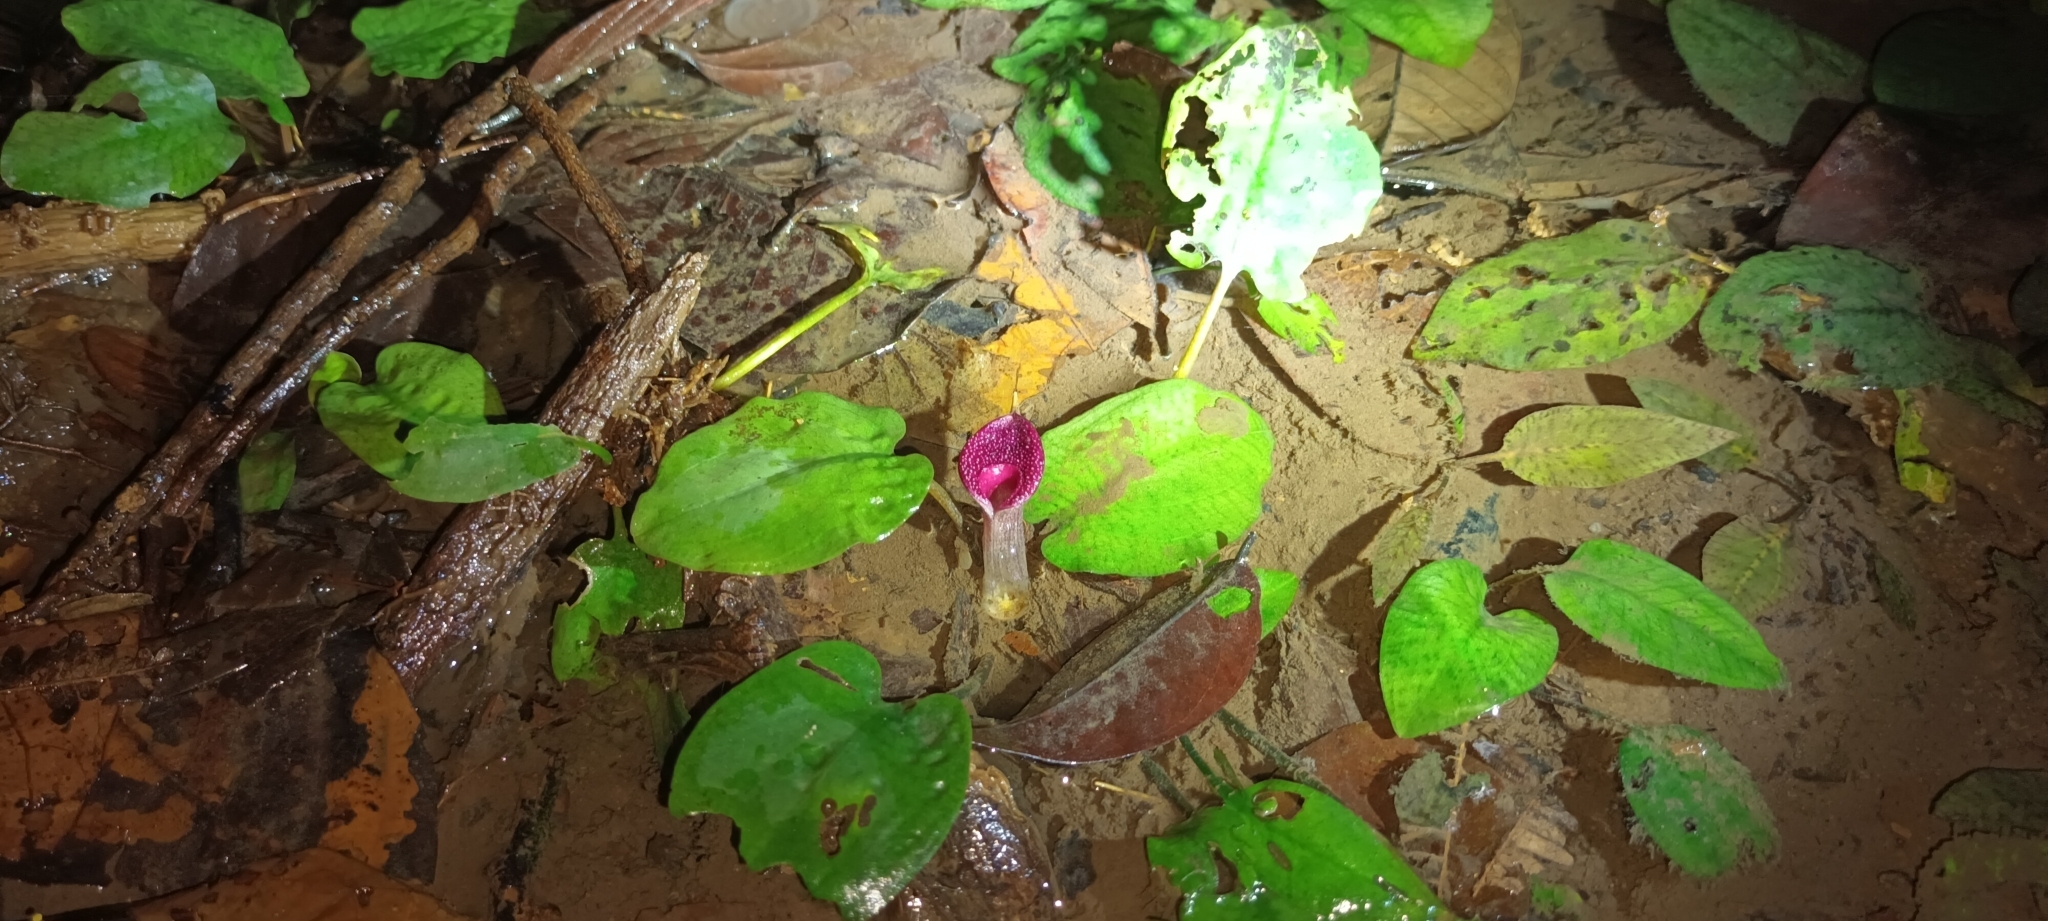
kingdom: Plantae
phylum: Tracheophyta
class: Liliopsida
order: Alismatales
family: Araceae
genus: Cryptocoryne
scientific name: Cryptocoryne griffithii
